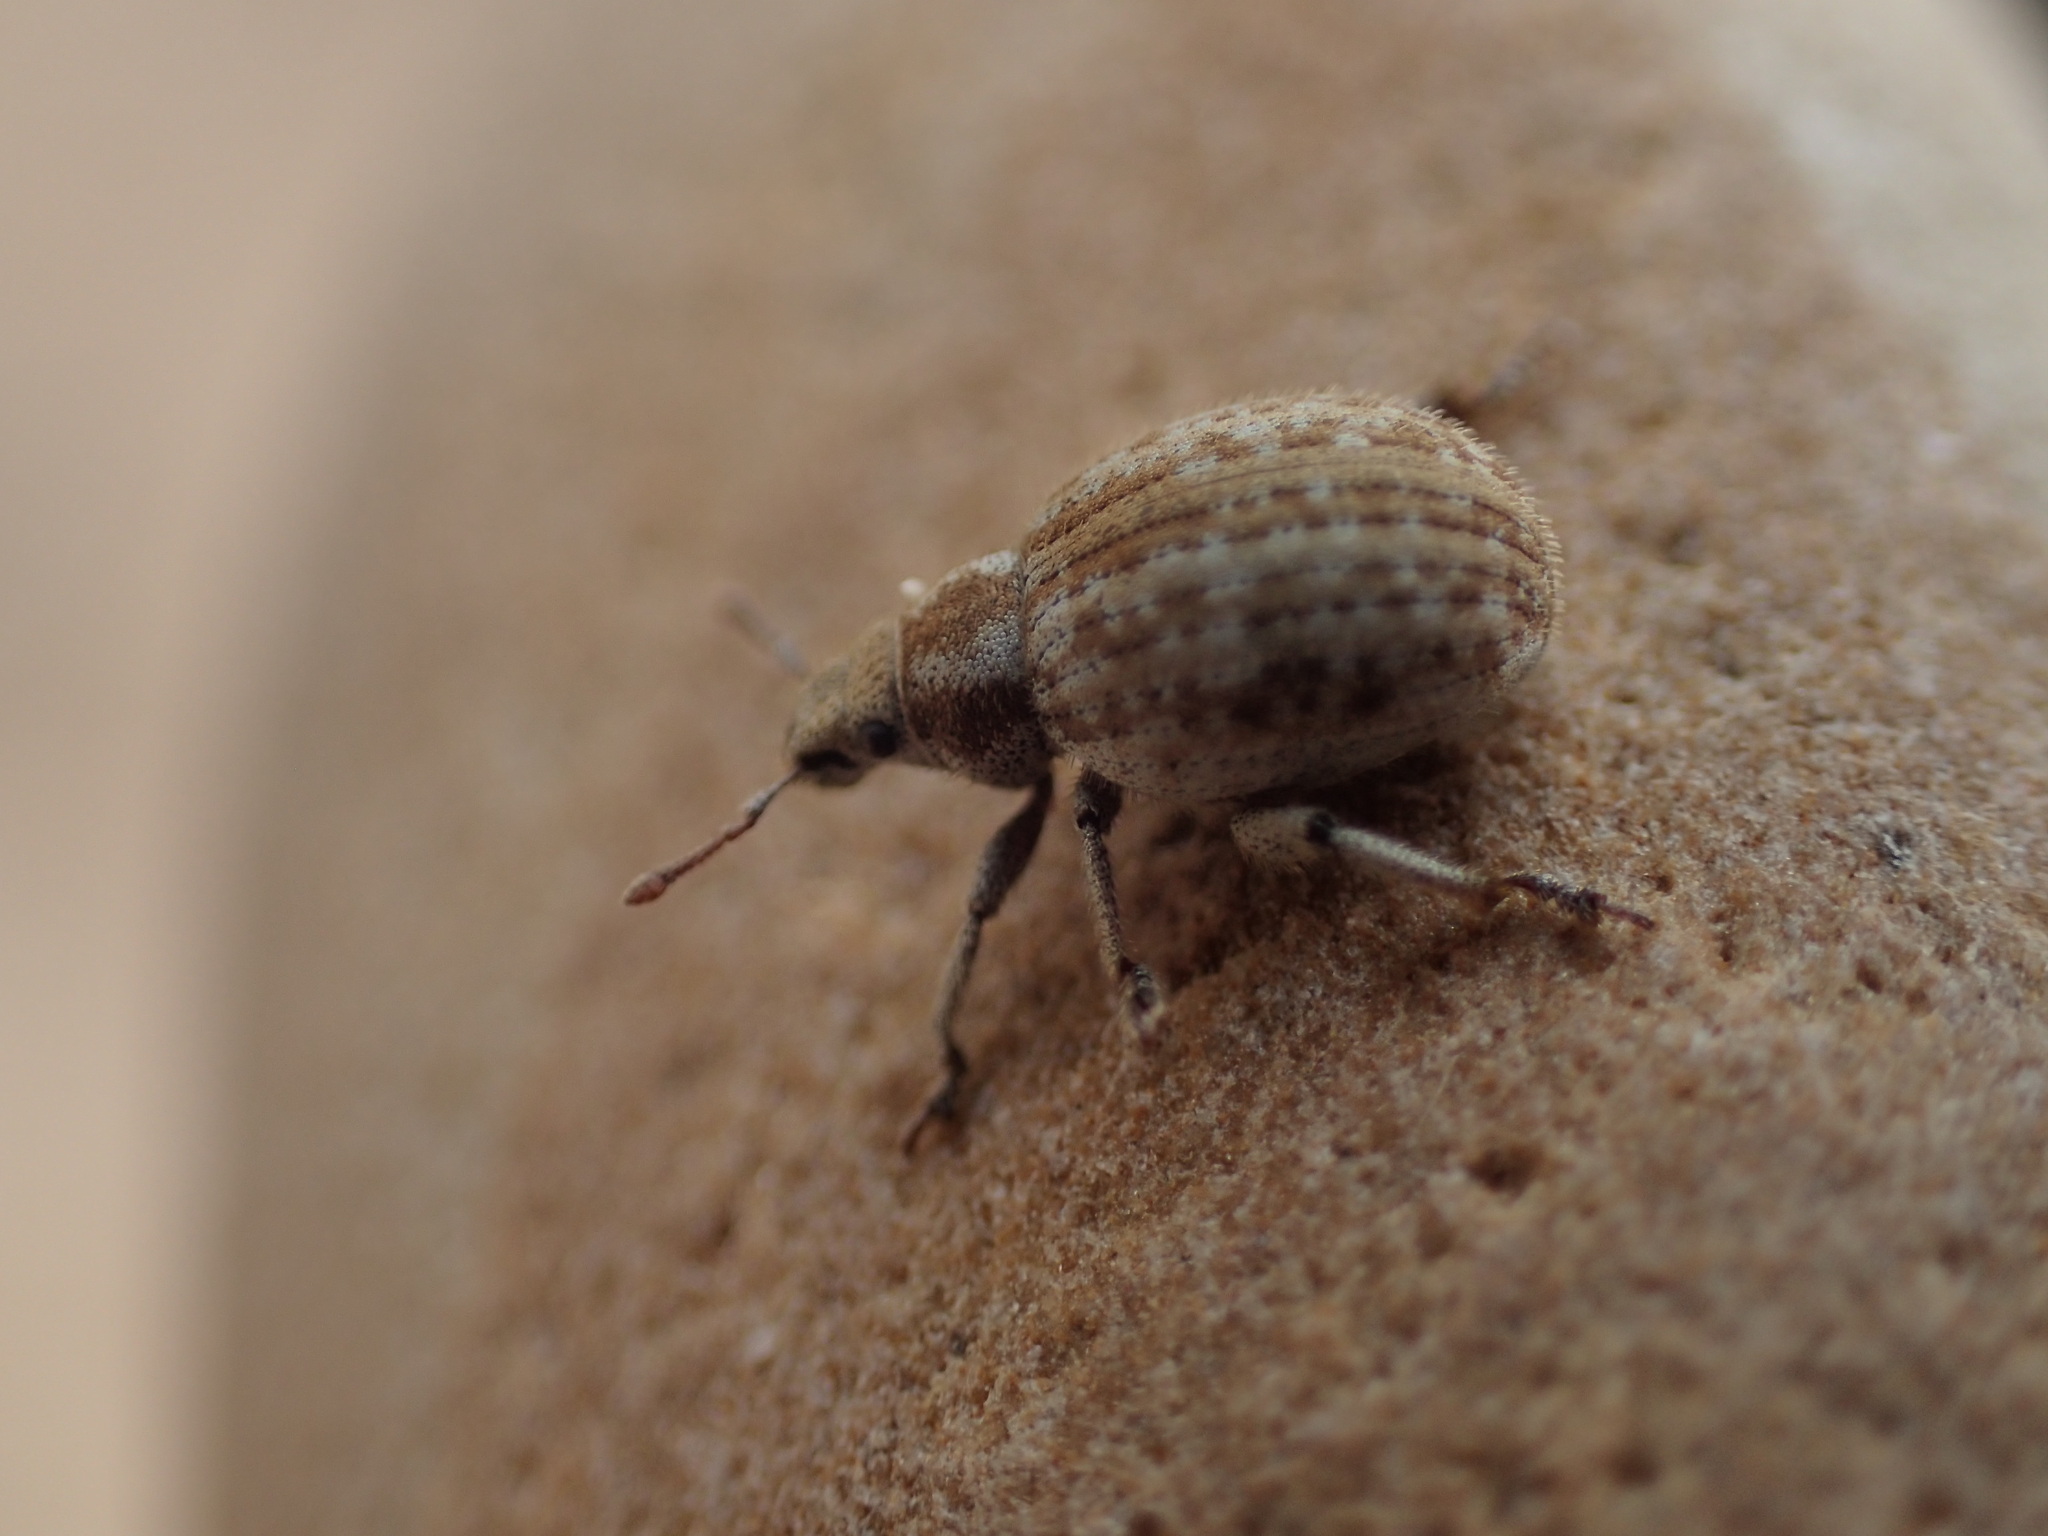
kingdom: Animalia
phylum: Arthropoda
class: Insecta
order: Coleoptera
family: Curculionidae
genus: Philopedon
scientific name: Philopedon plagiatum
